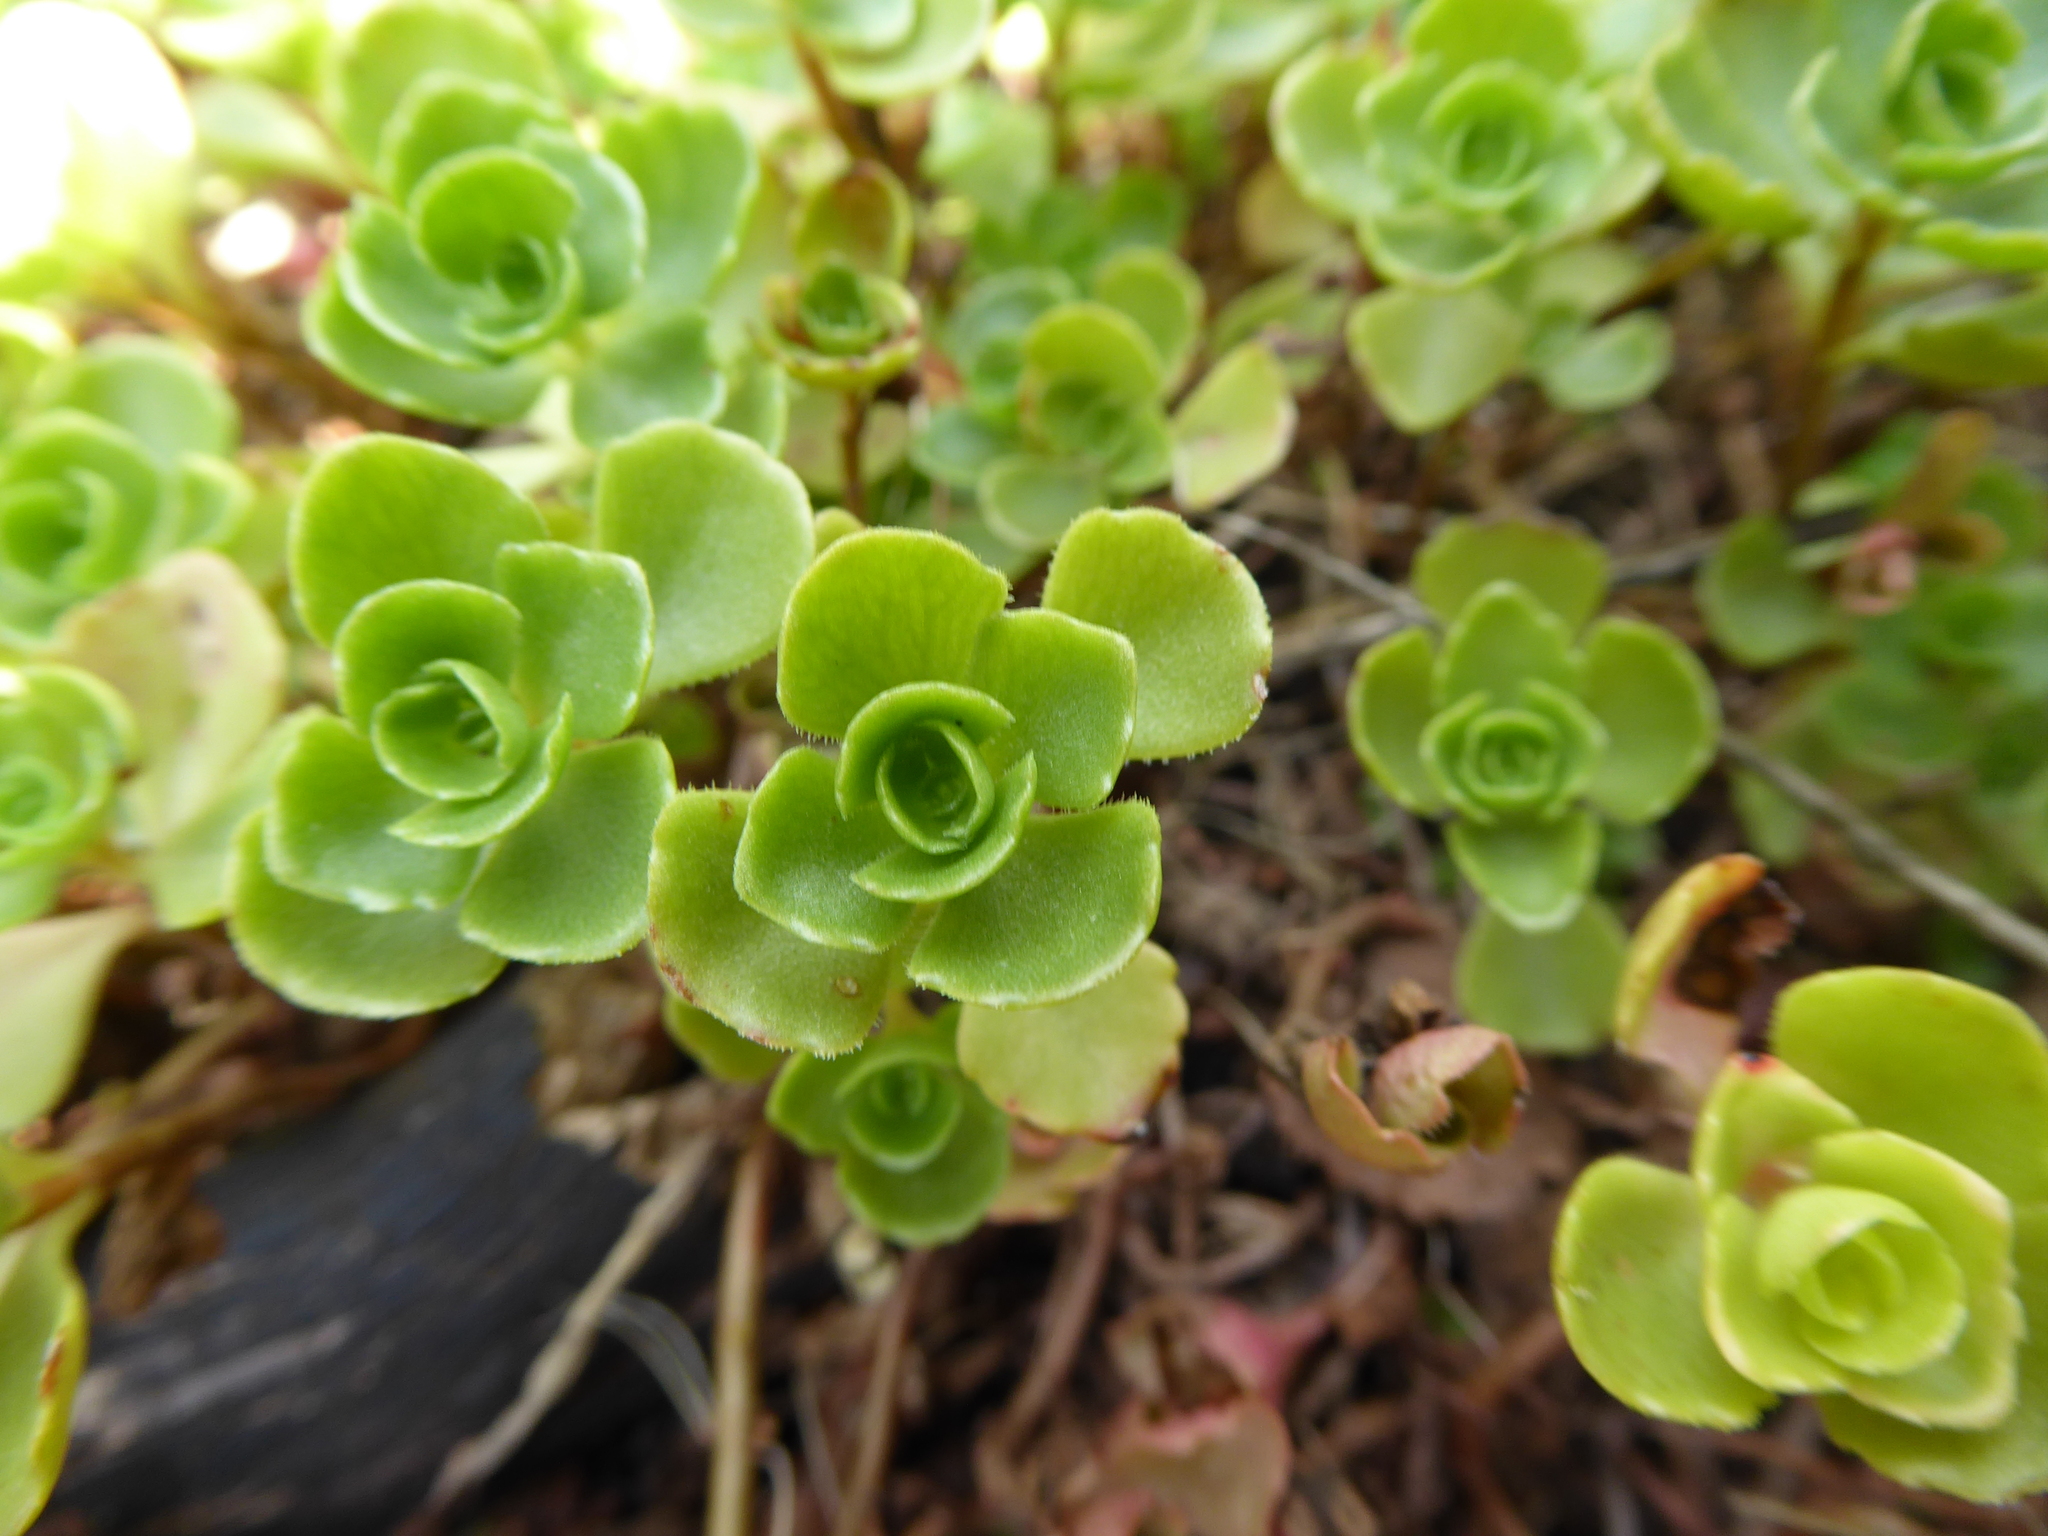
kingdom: Plantae
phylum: Tracheophyta
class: Magnoliopsida
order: Saxifragales
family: Crassulaceae
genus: Phedimus
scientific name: Phedimus spurius
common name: Caucasian stonecrop
